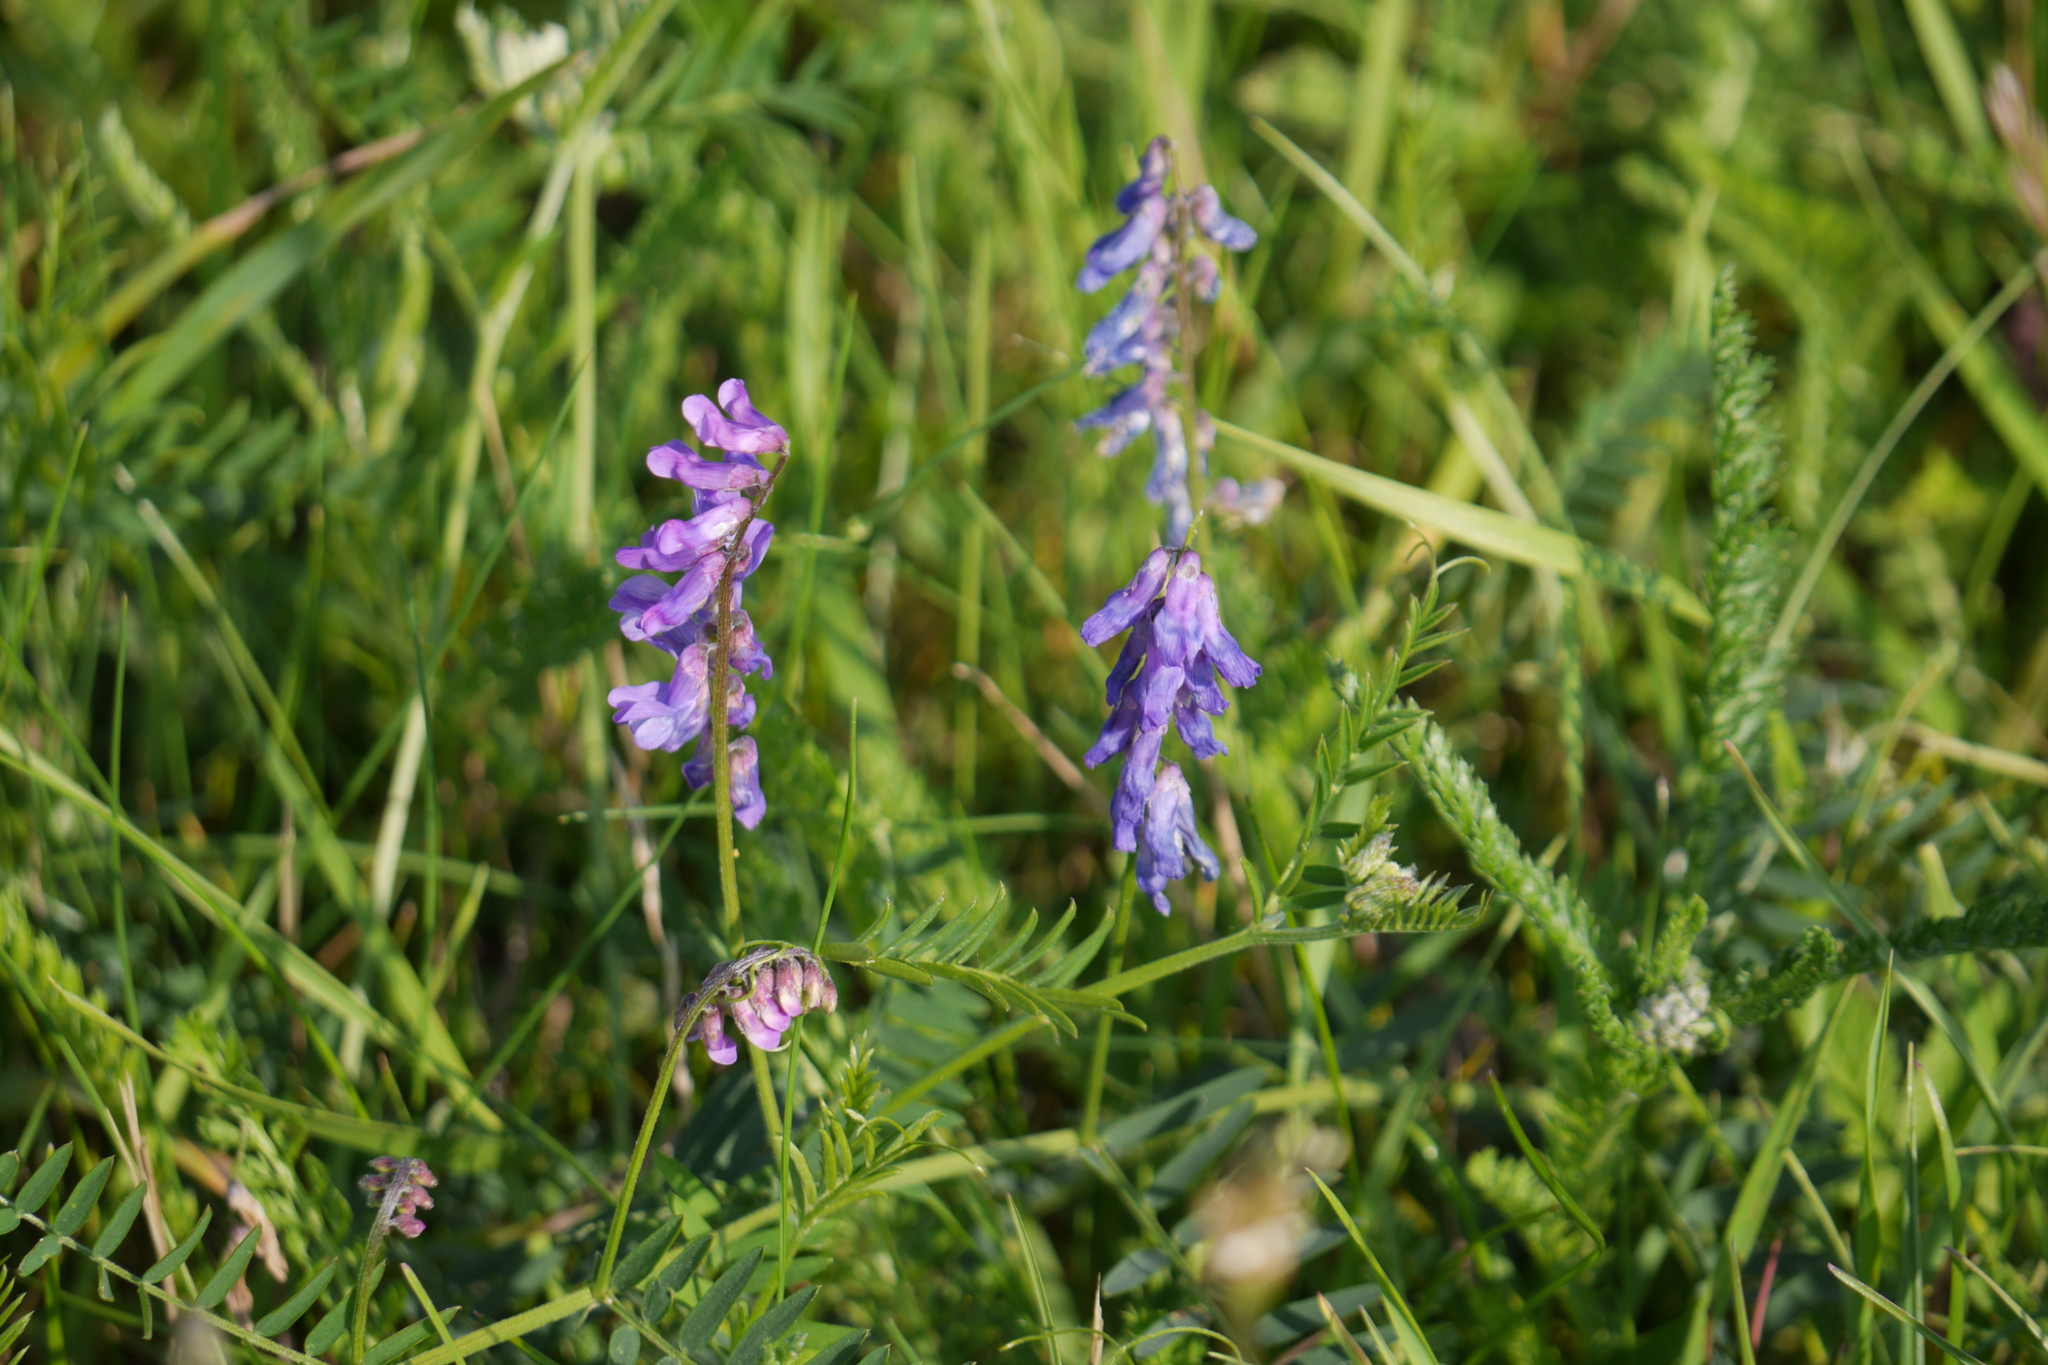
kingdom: Plantae
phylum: Tracheophyta
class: Magnoliopsida
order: Fabales
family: Fabaceae
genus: Vicia
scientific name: Vicia cracca
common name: Bird vetch
